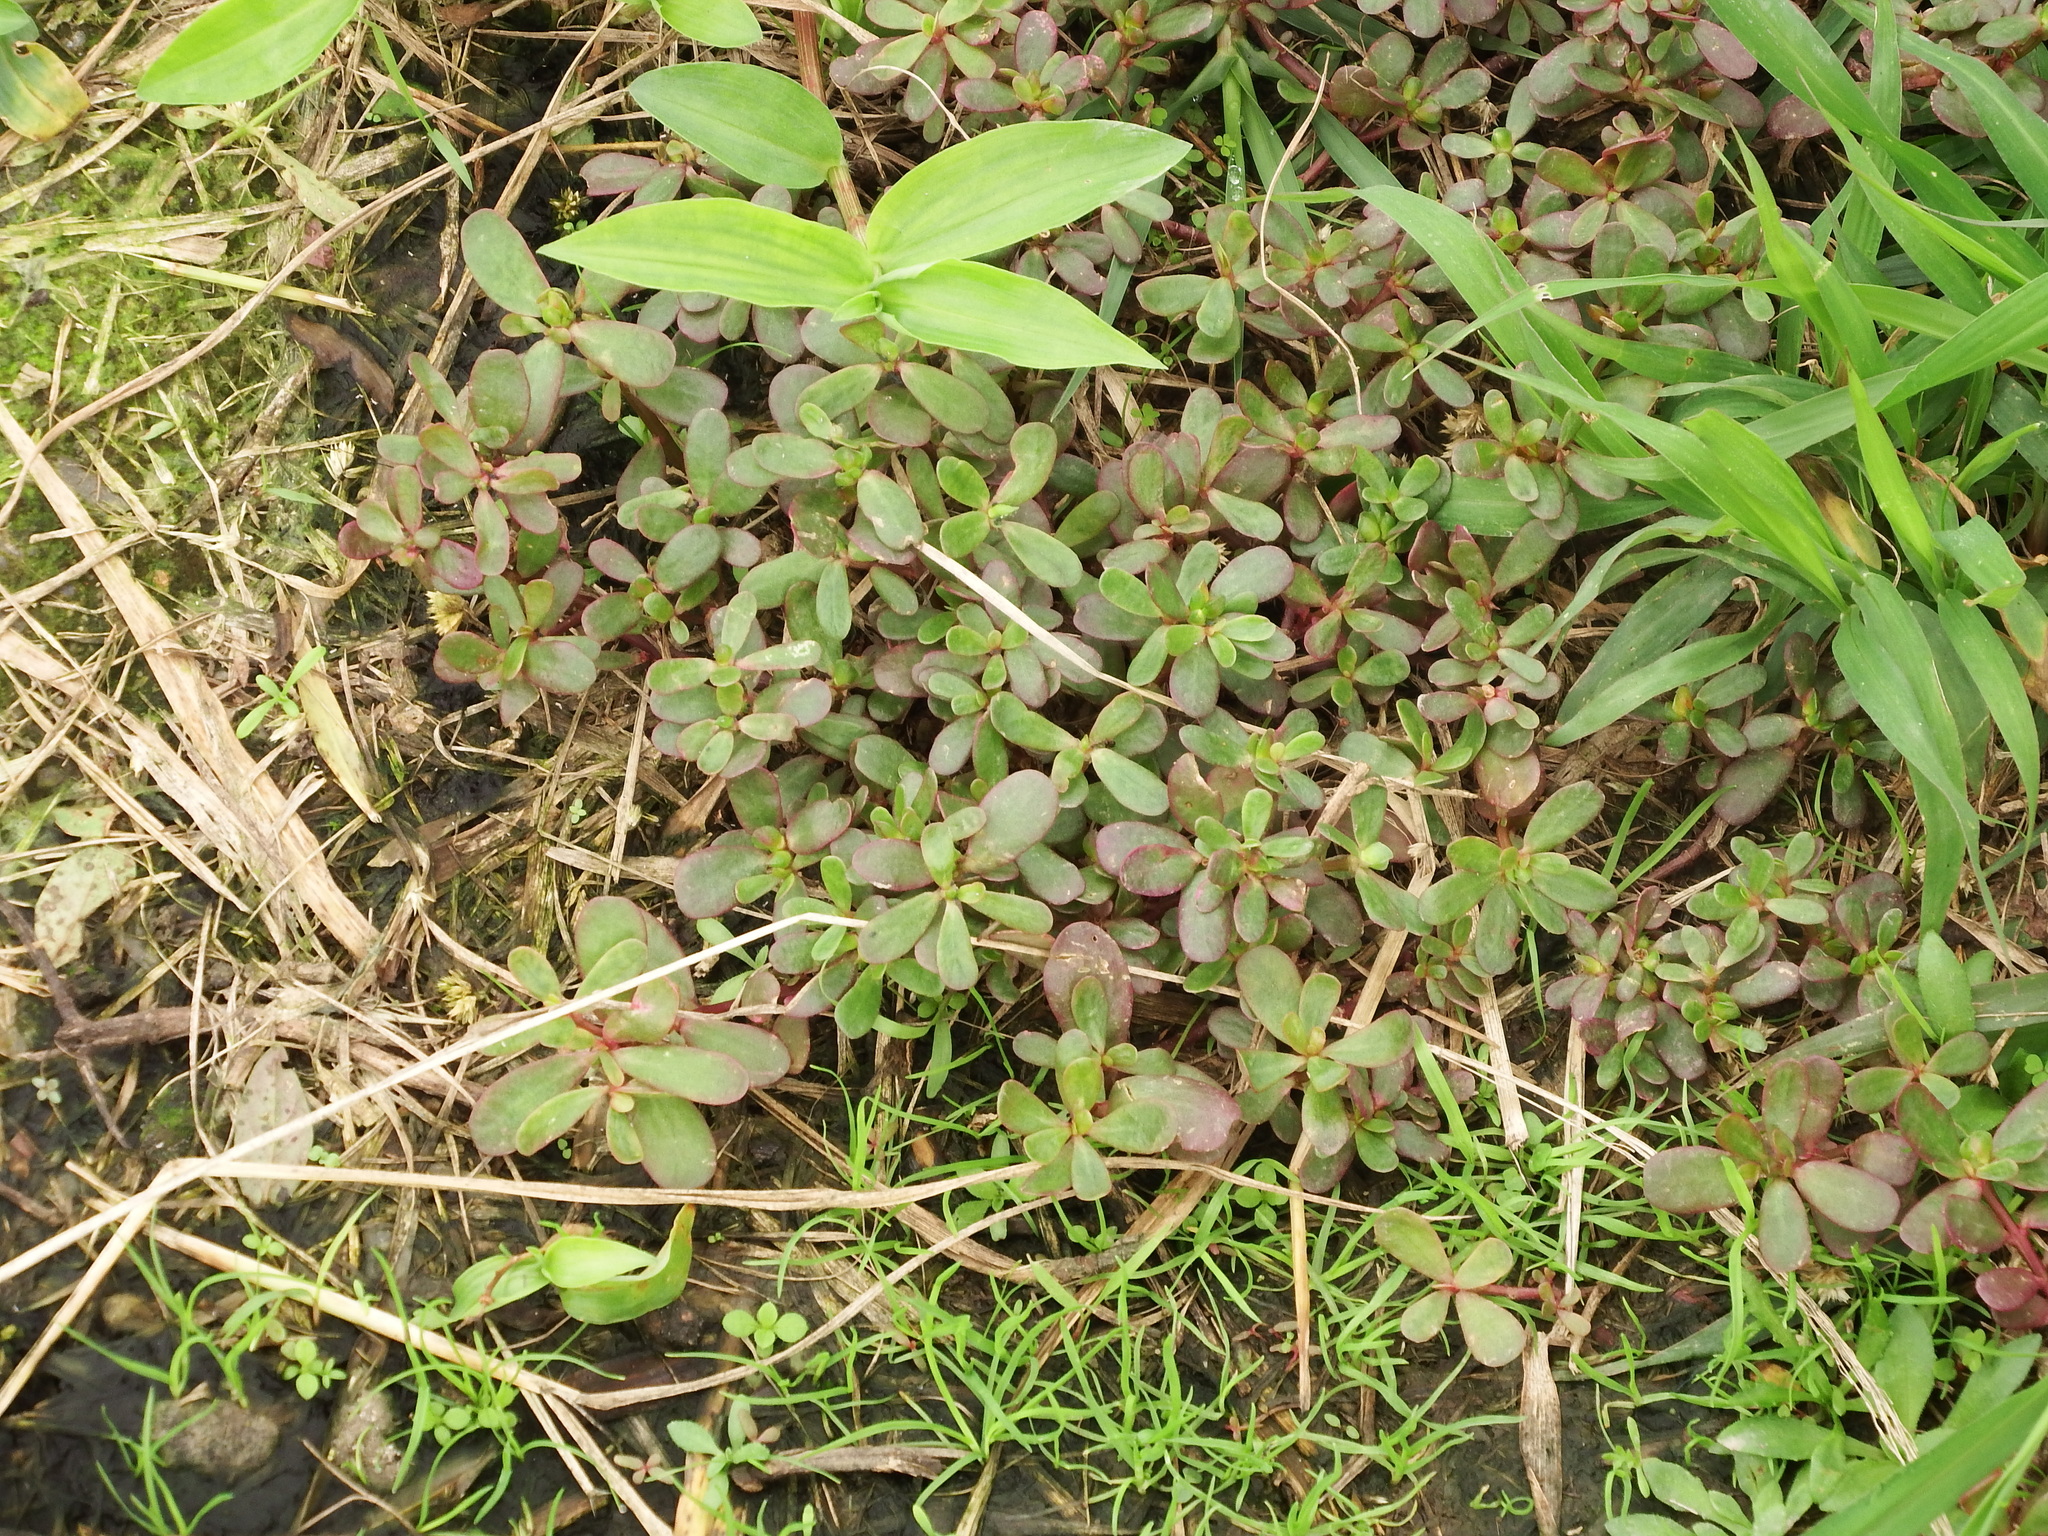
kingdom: Plantae
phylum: Tracheophyta
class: Magnoliopsida
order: Caryophyllales
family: Portulacaceae
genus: Portulaca
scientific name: Portulaca oleracea
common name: Common purslane
